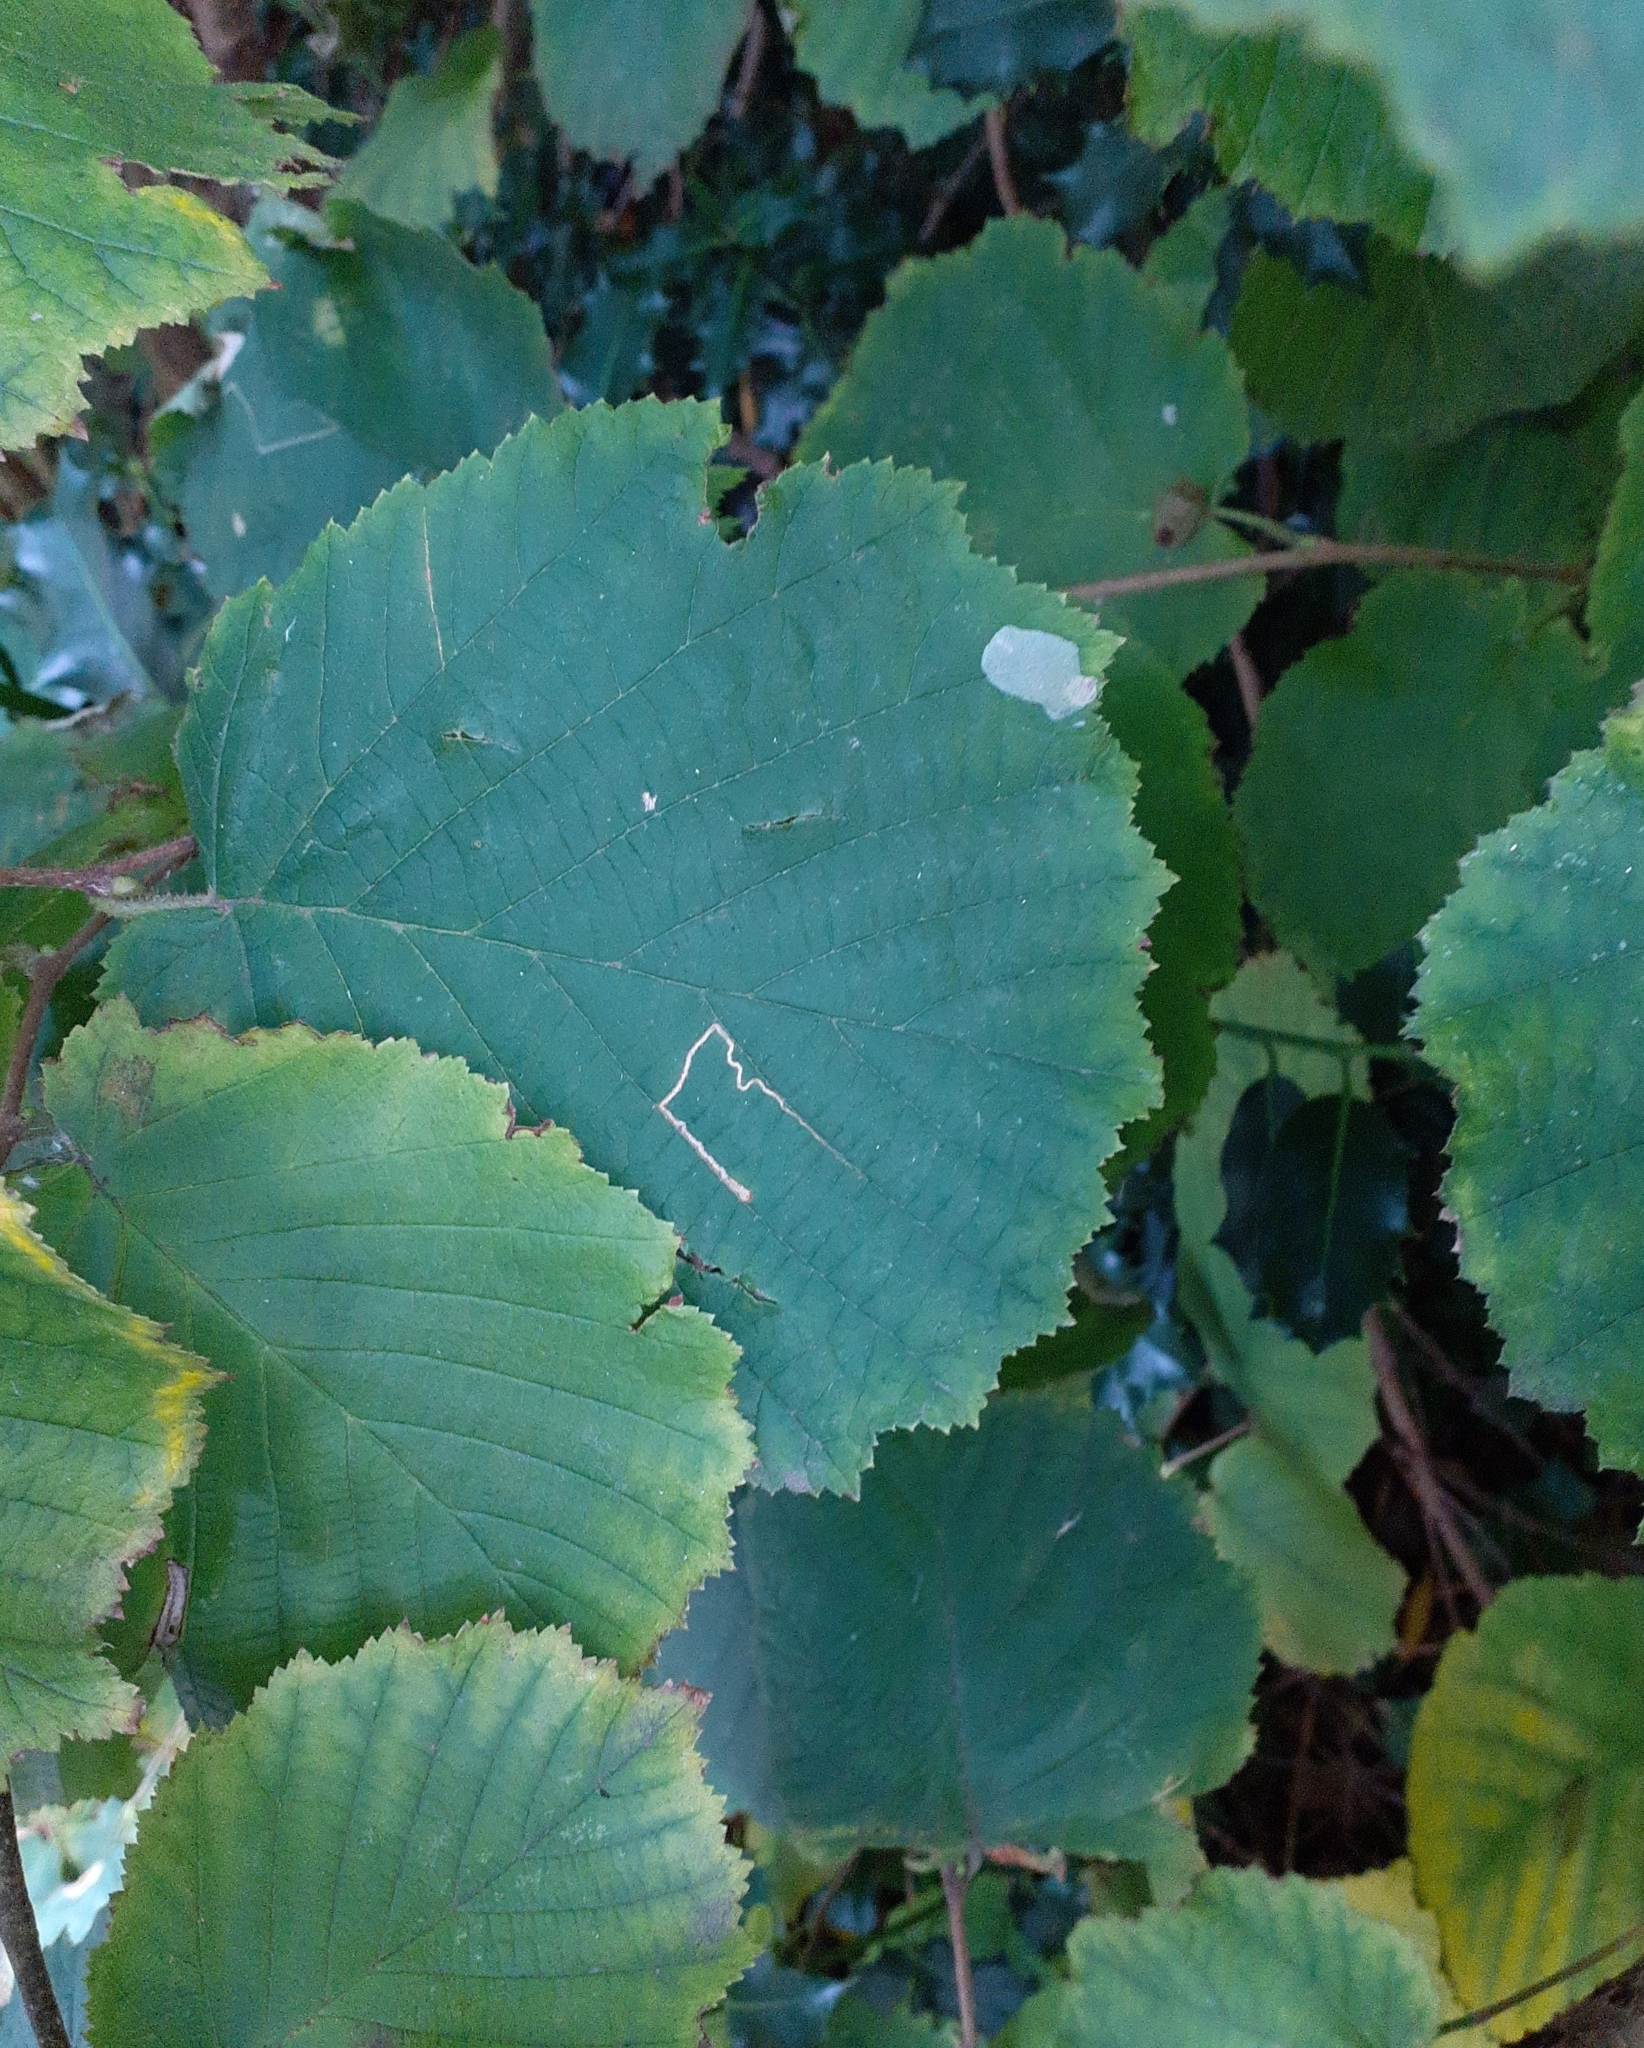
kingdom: Animalia
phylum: Arthropoda
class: Insecta
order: Lepidoptera
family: Gracillariidae
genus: Phyllonorycter
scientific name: Phyllonorycter coryli
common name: Nut-leaf blister moth
